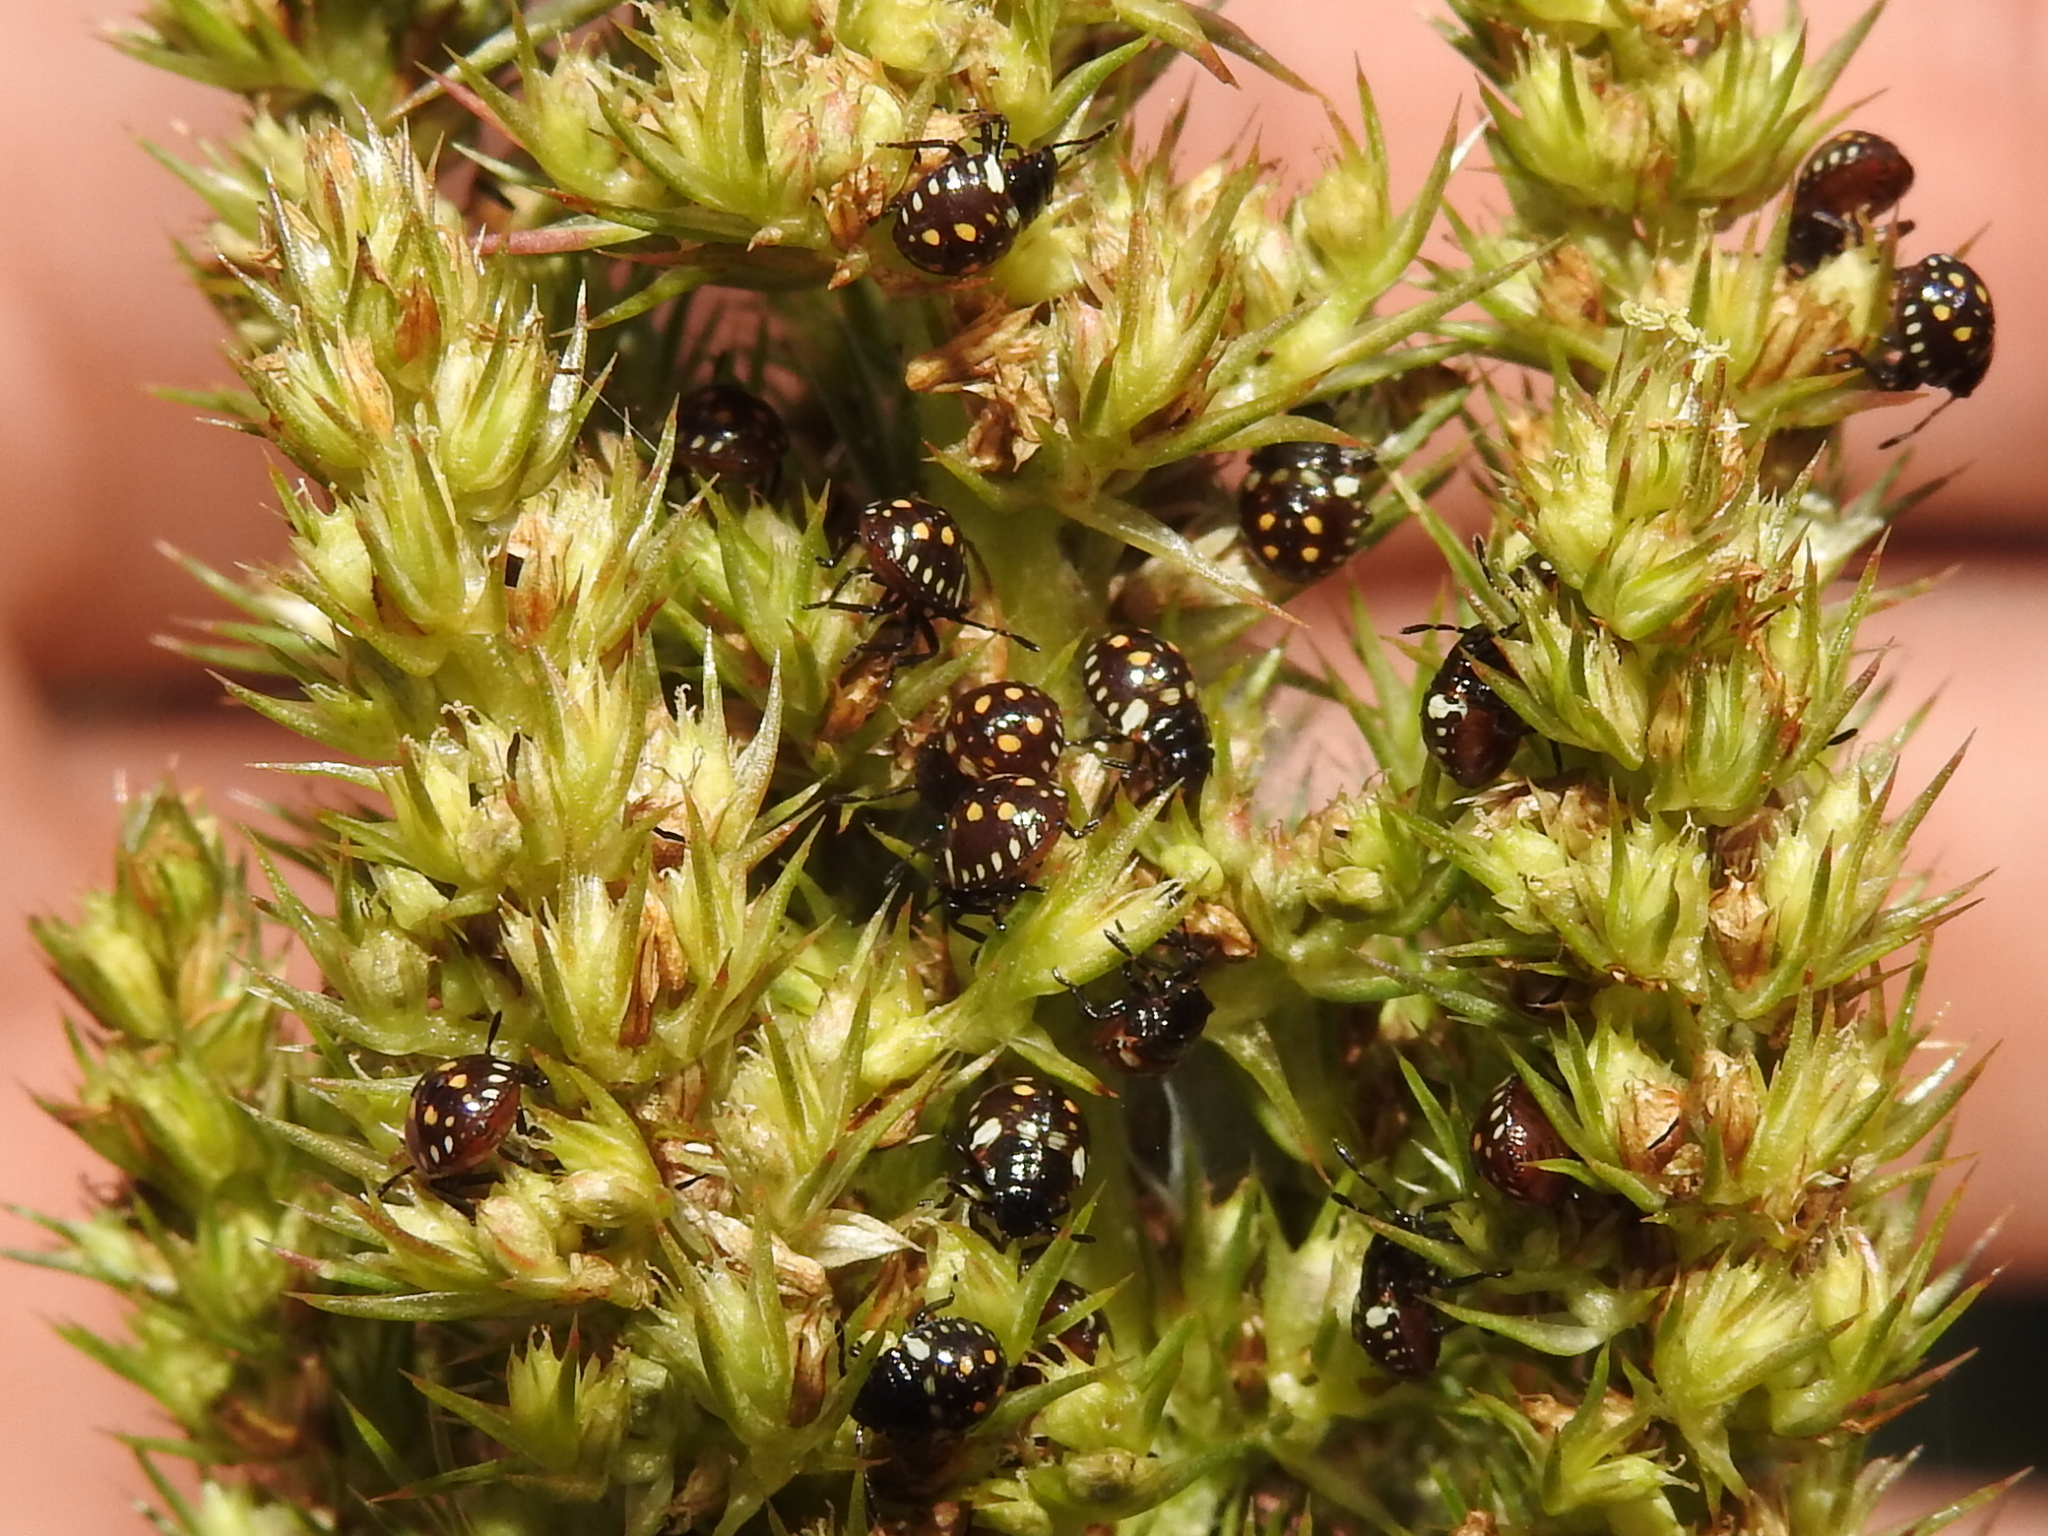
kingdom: Animalia
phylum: Arthropoda
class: Insecta
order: Hemiptera
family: Pentatomidae
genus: Nezara
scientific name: Nezara viridula
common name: Southern green stink bug
